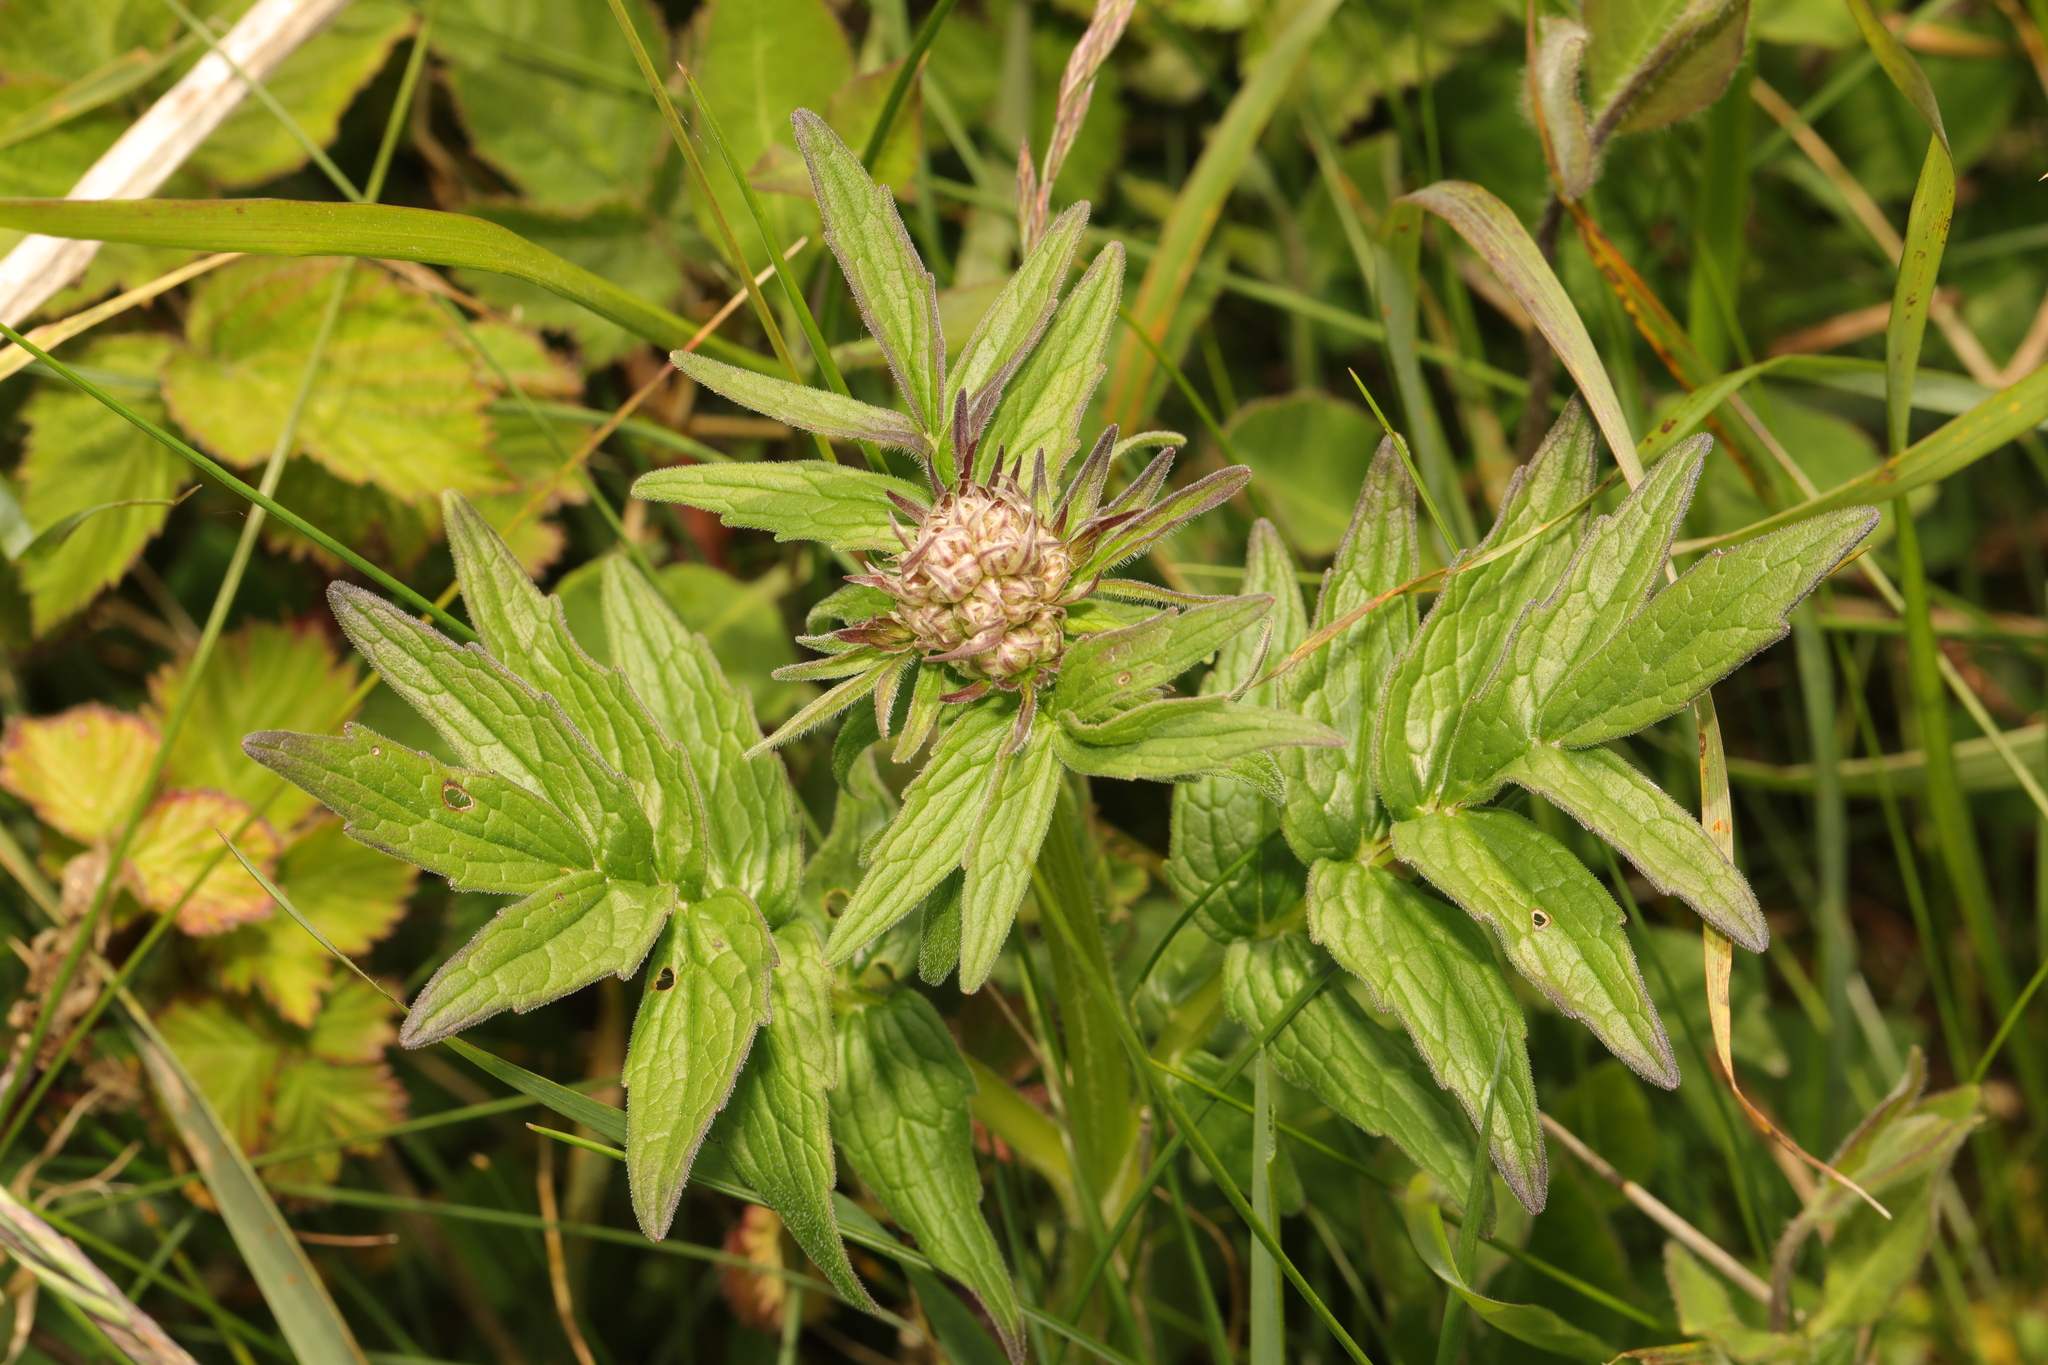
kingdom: Plantae
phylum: Tracheophyta
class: Magnoliopsida
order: Dipsacales
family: Caprifoliaceae
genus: Valeriana
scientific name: Valeriana officinalis
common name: Common valerian
